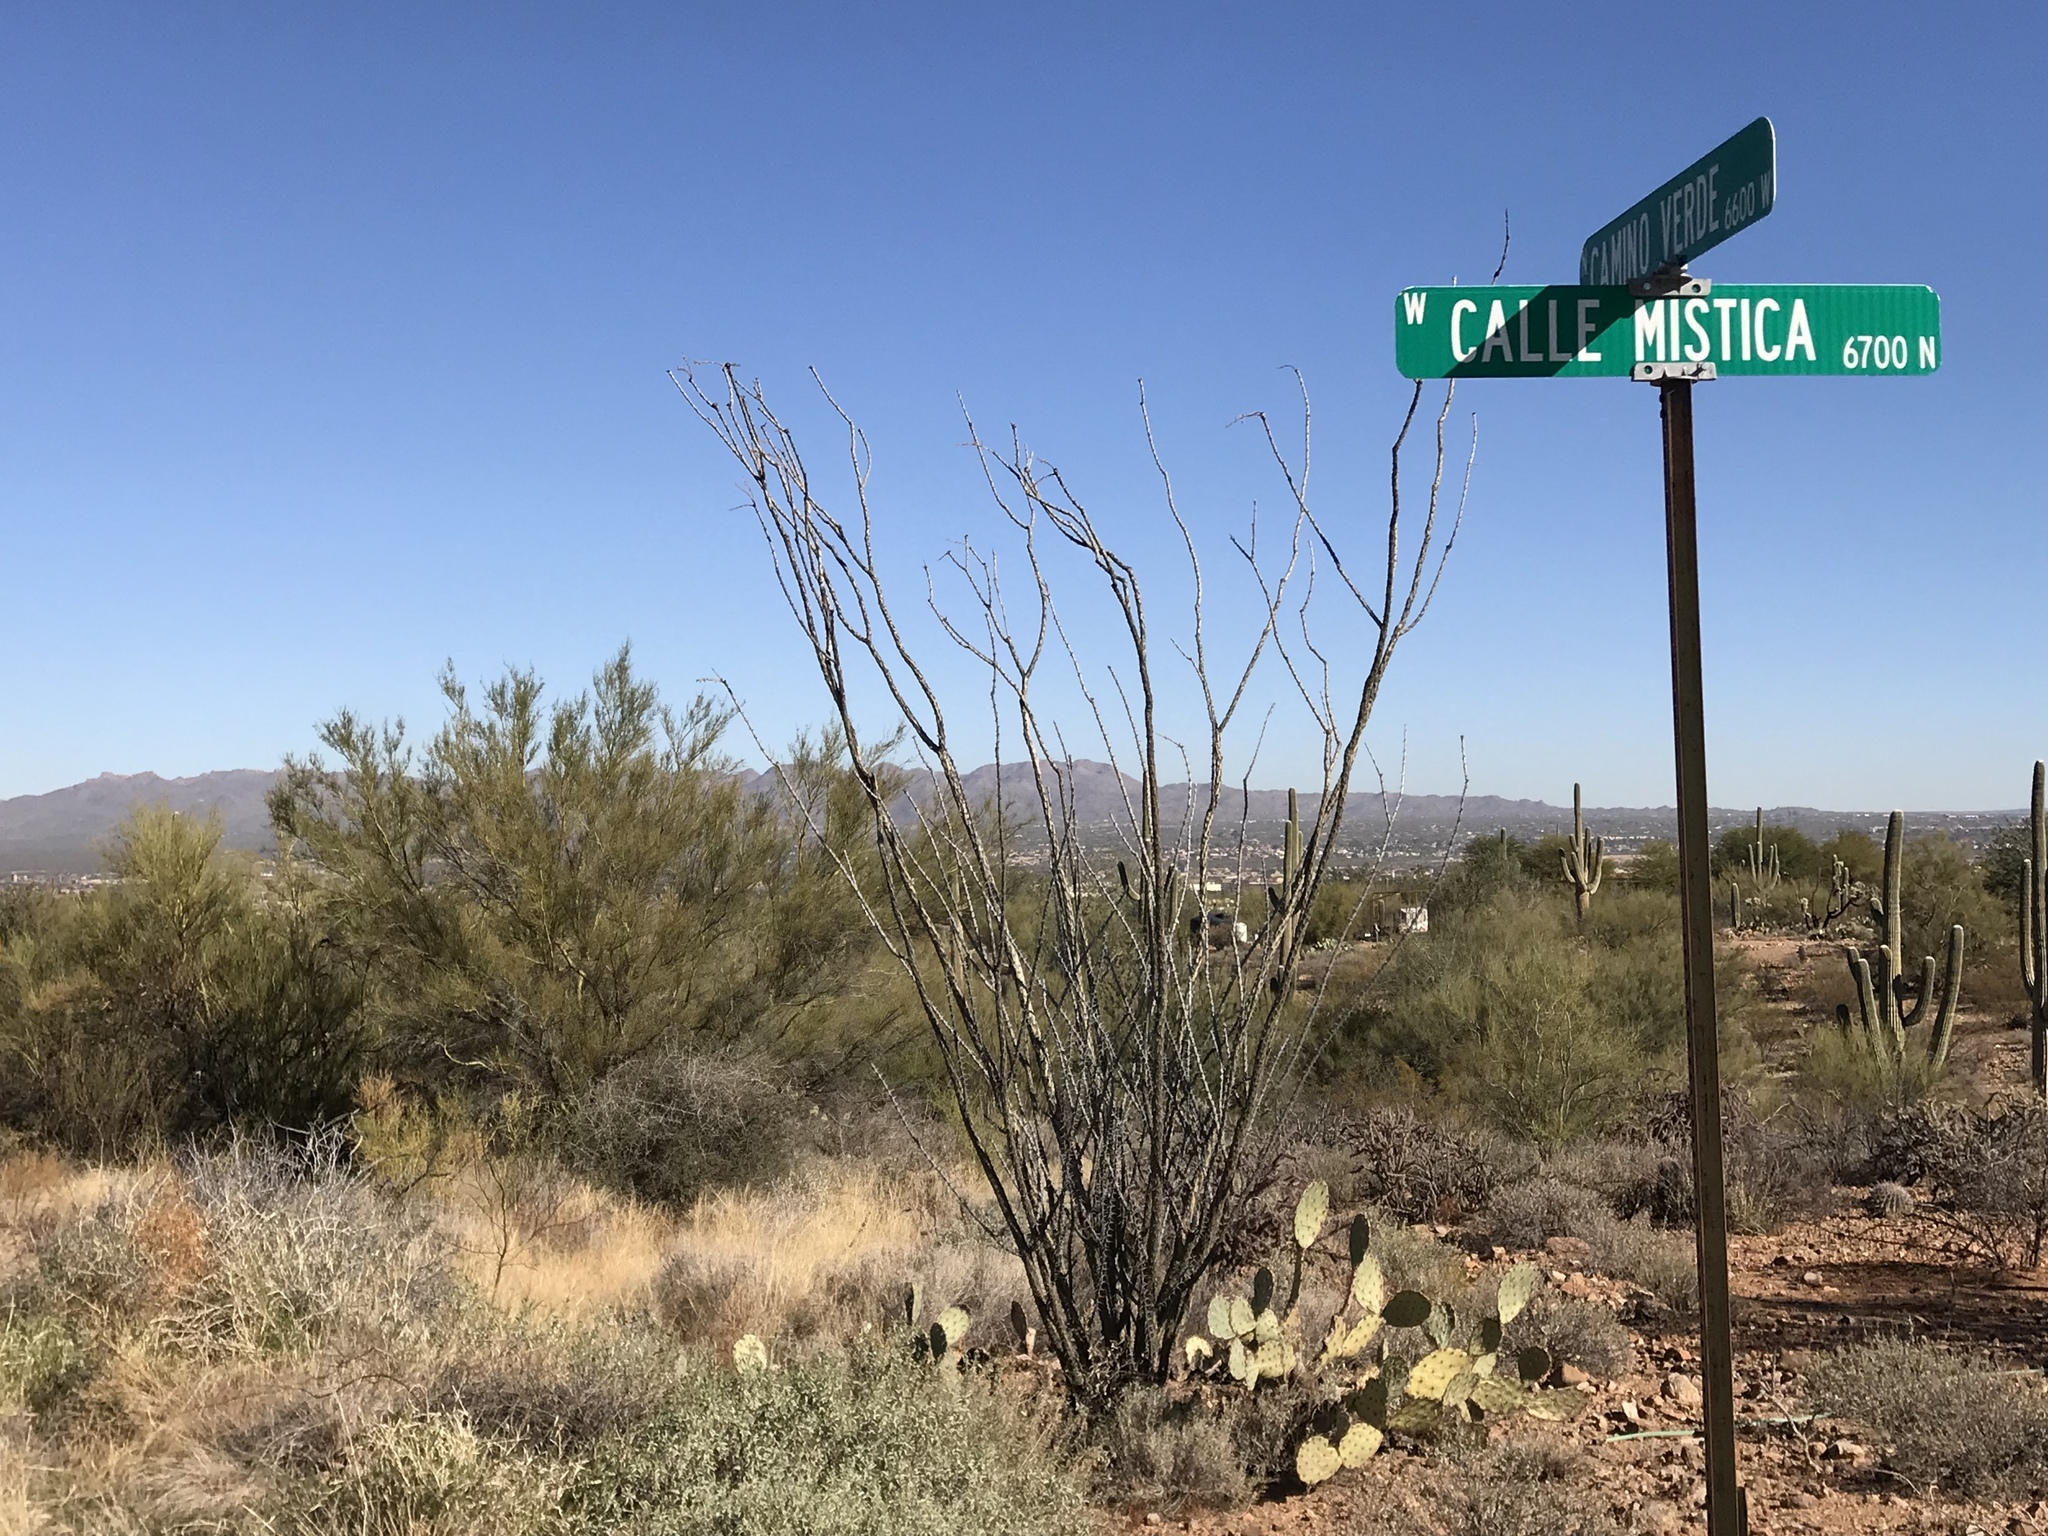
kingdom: Plantae
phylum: Tracheophyta
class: Magnoliopsida
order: Ericales
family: Fouquieriaceae
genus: Fouquieria
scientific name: Fouquieria splendens
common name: Vine-cactus
